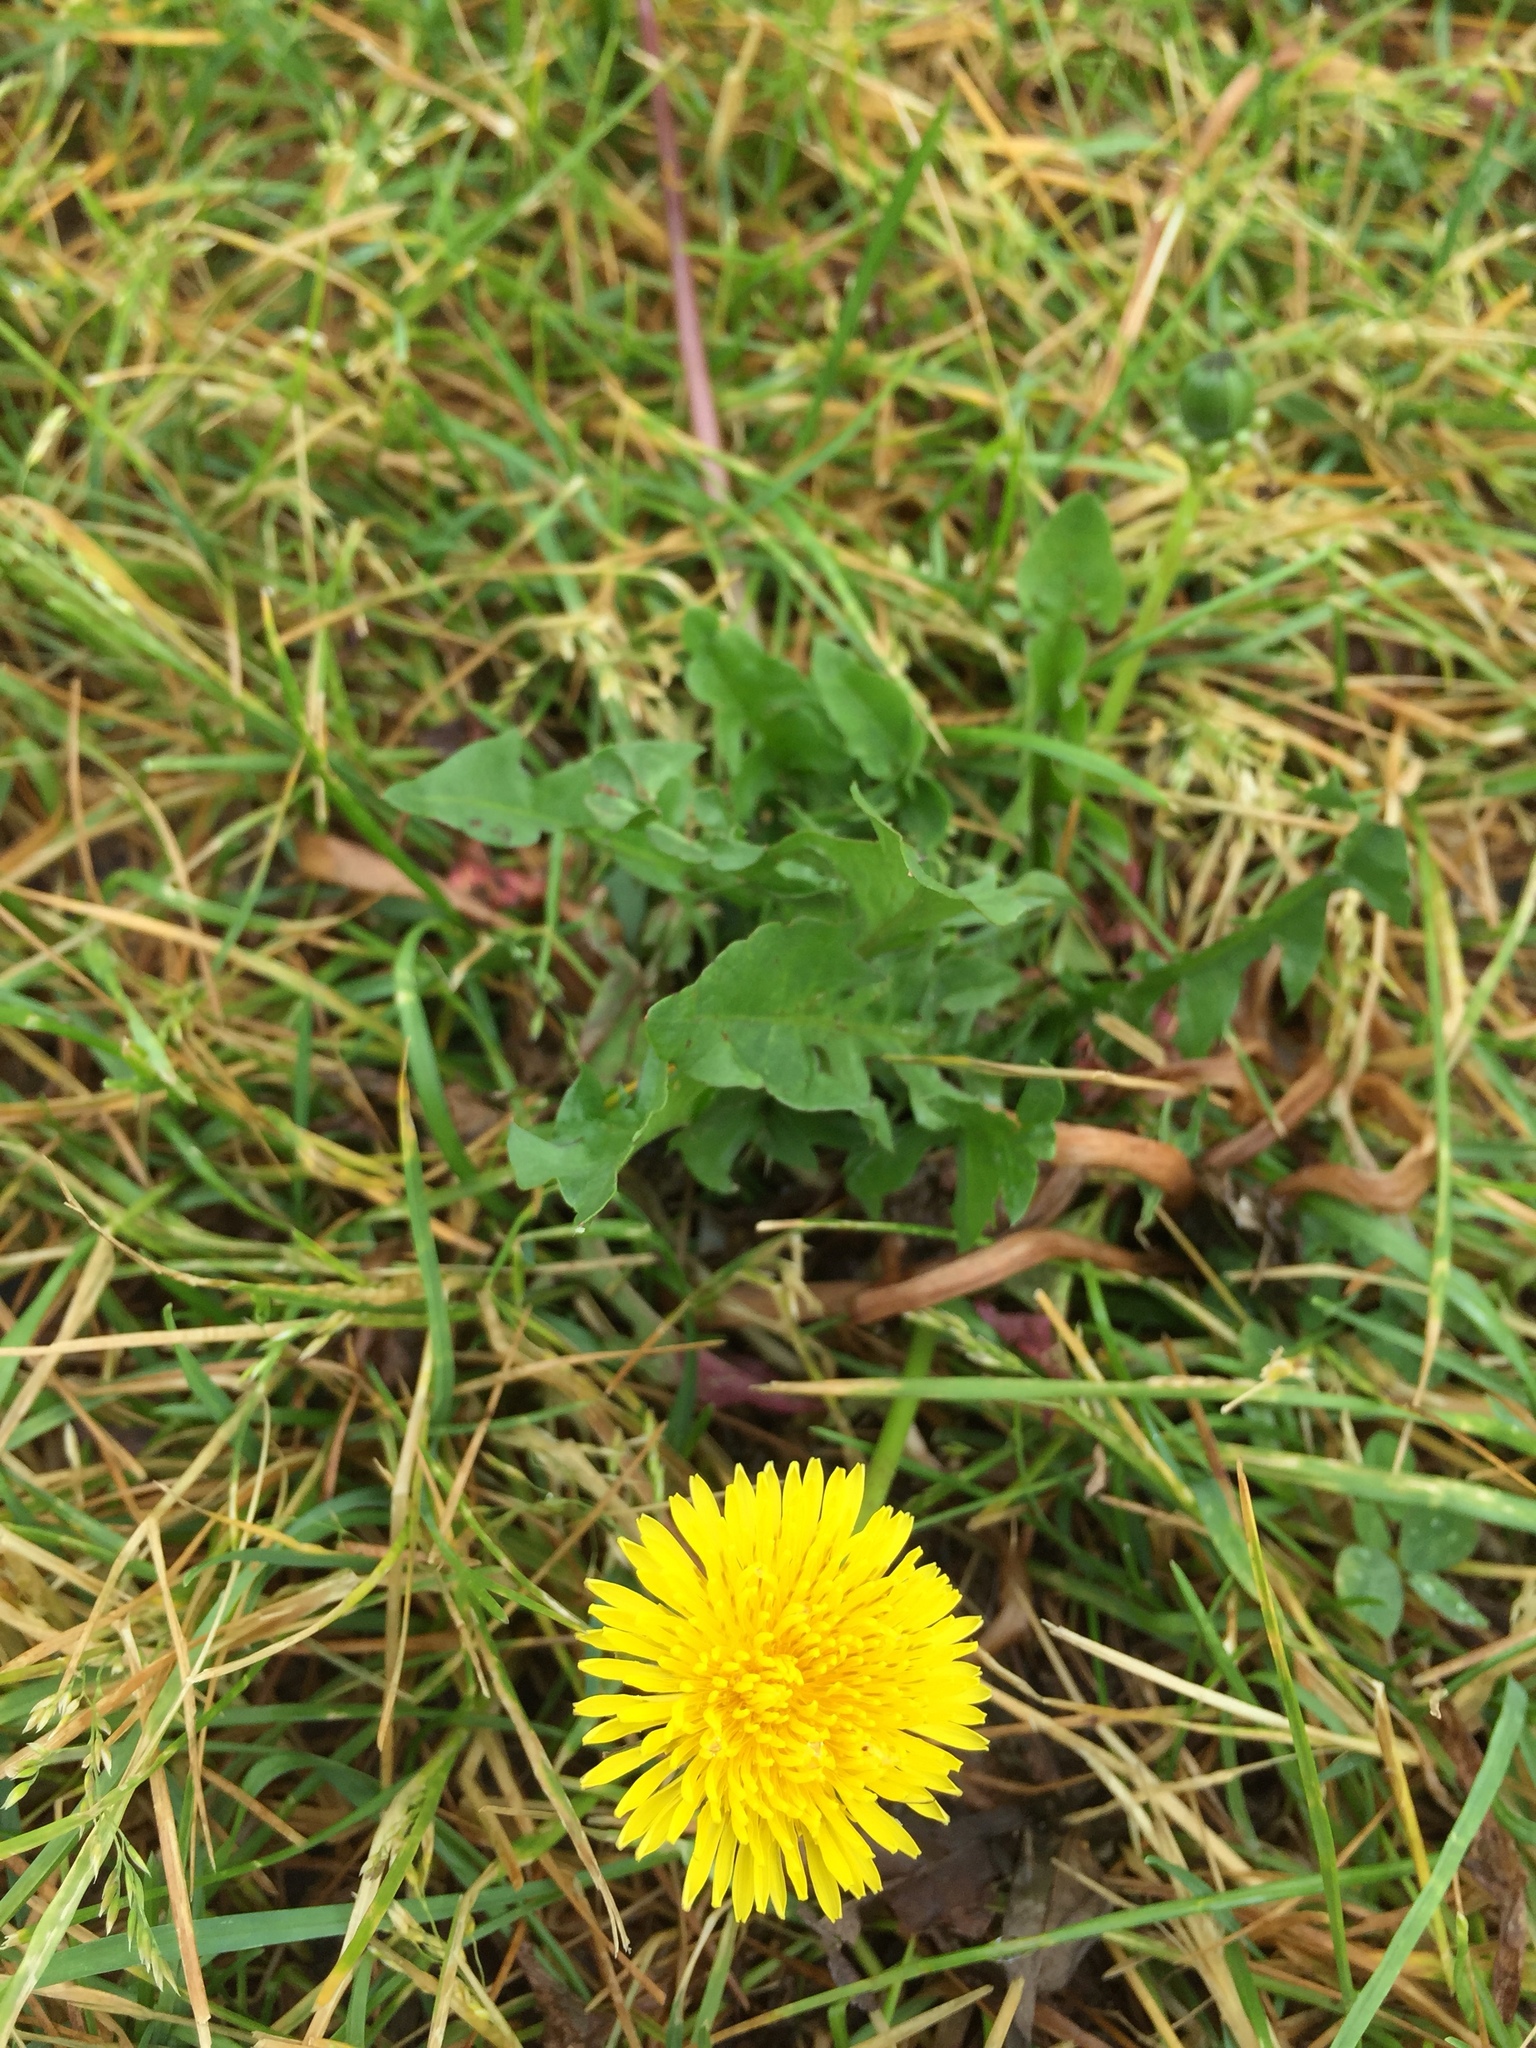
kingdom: Plantae
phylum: Tracheophyta
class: Magnoliopsida
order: Asterales
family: Asteraceae
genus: Taraxacum
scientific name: Taraxacum officinale
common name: Common dandelion
